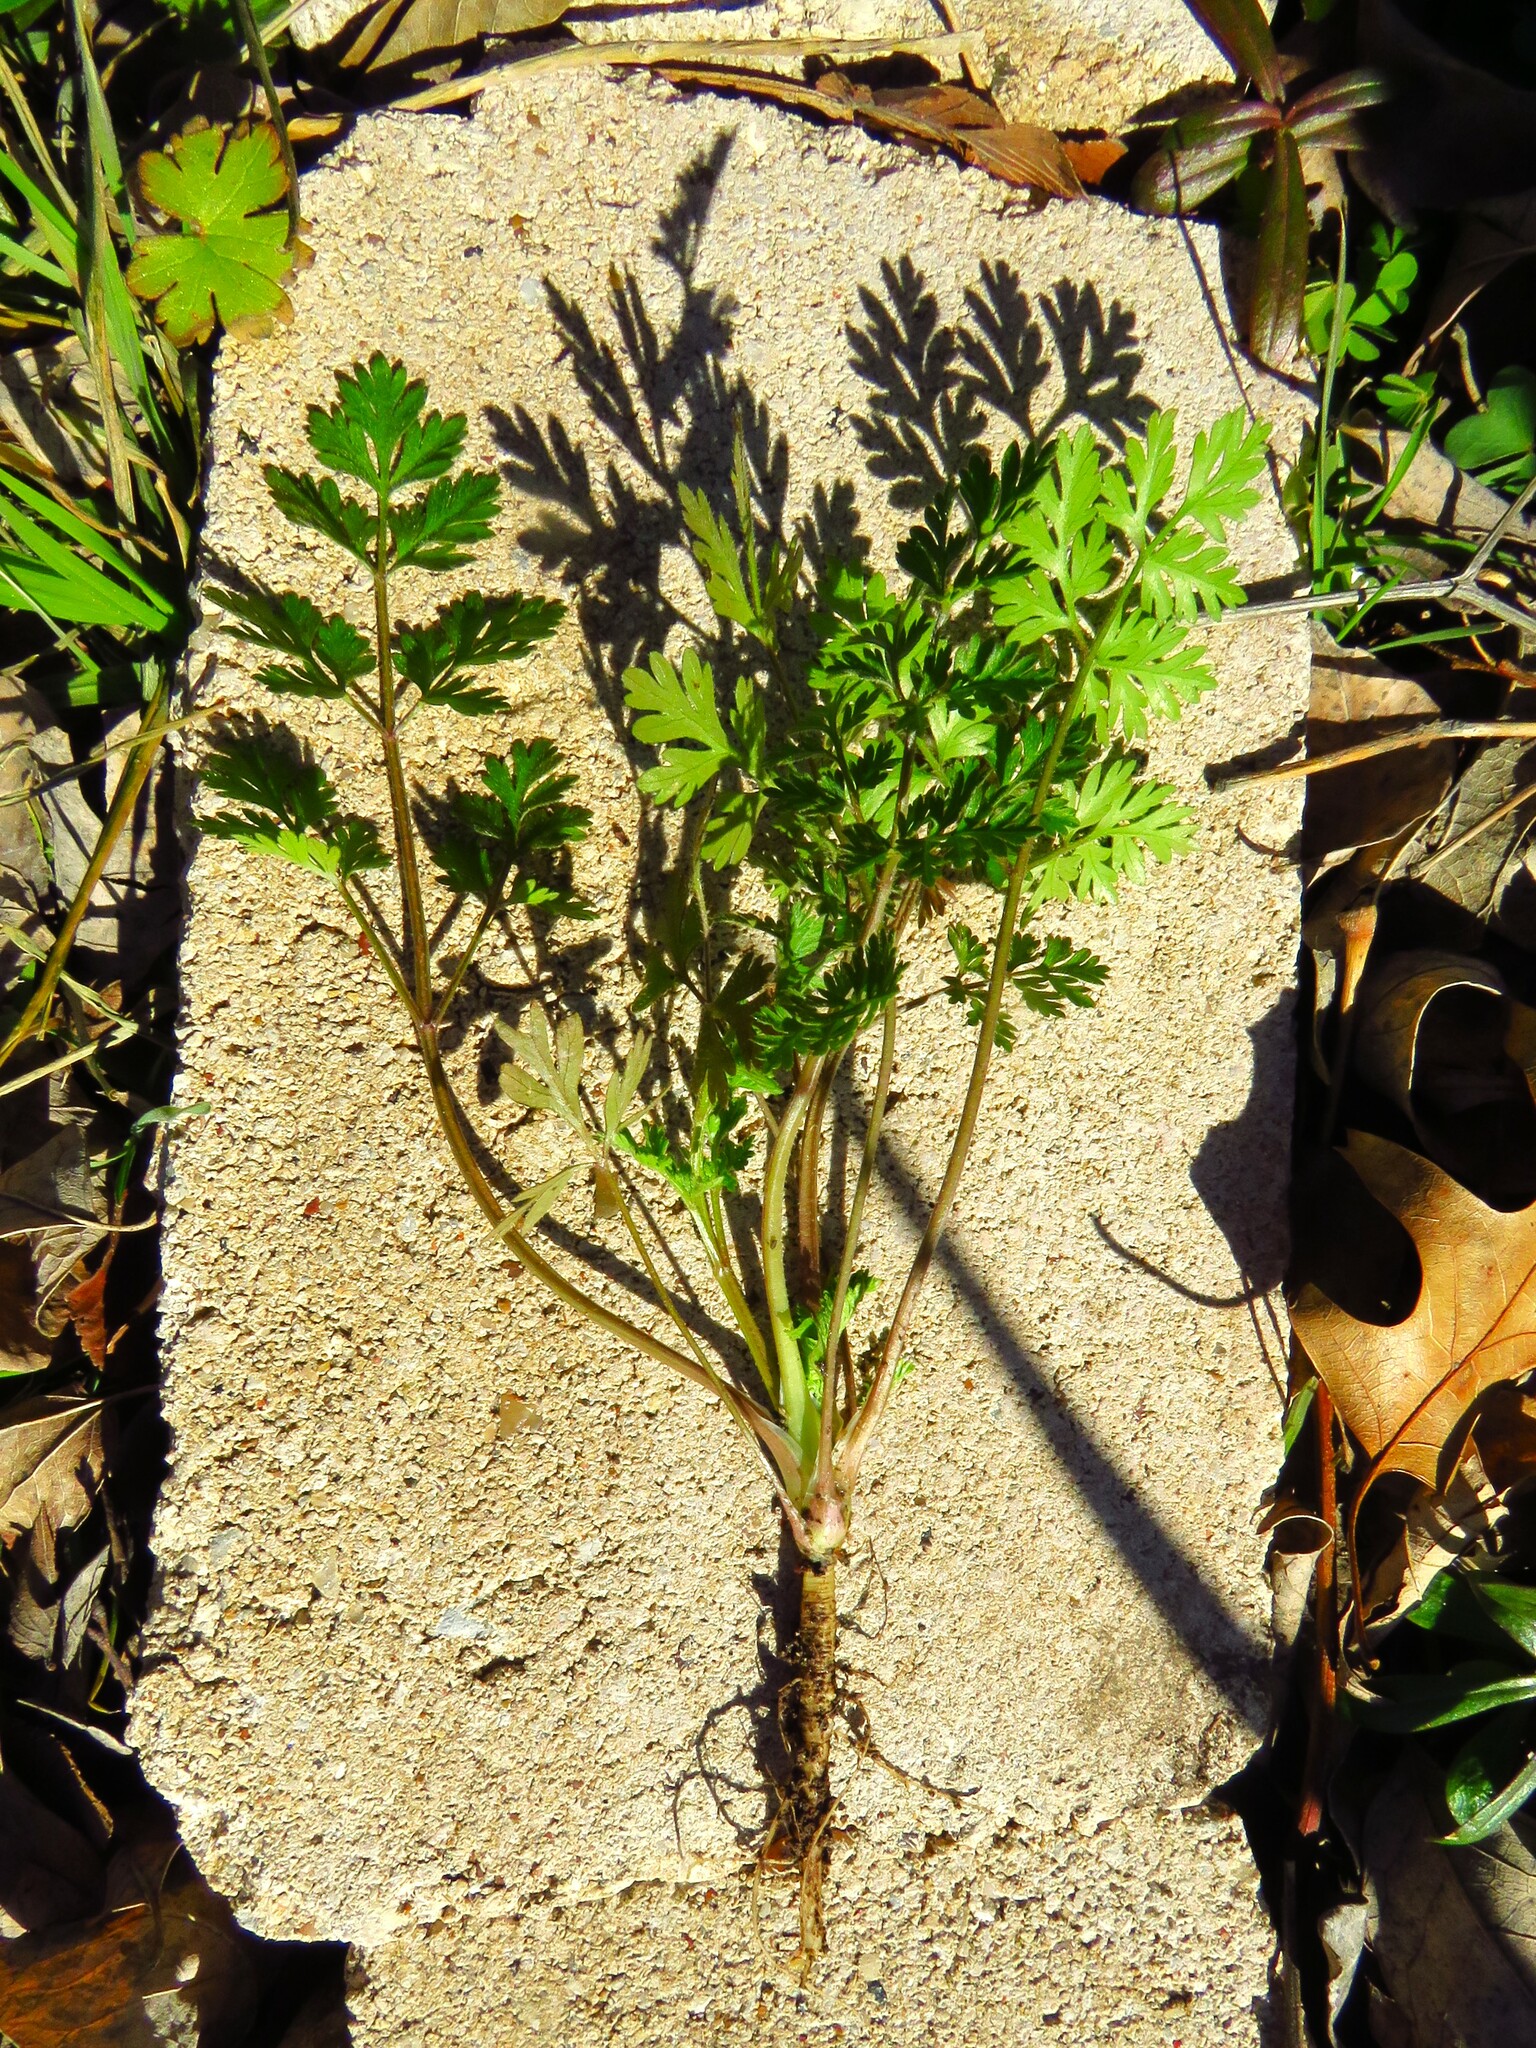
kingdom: Plantae
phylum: Tracheophyta
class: Magnoliopsida
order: Apiales
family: Apiaceae
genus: Torilis
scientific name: Torilis arvensis
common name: Spreading hedge-parsley
